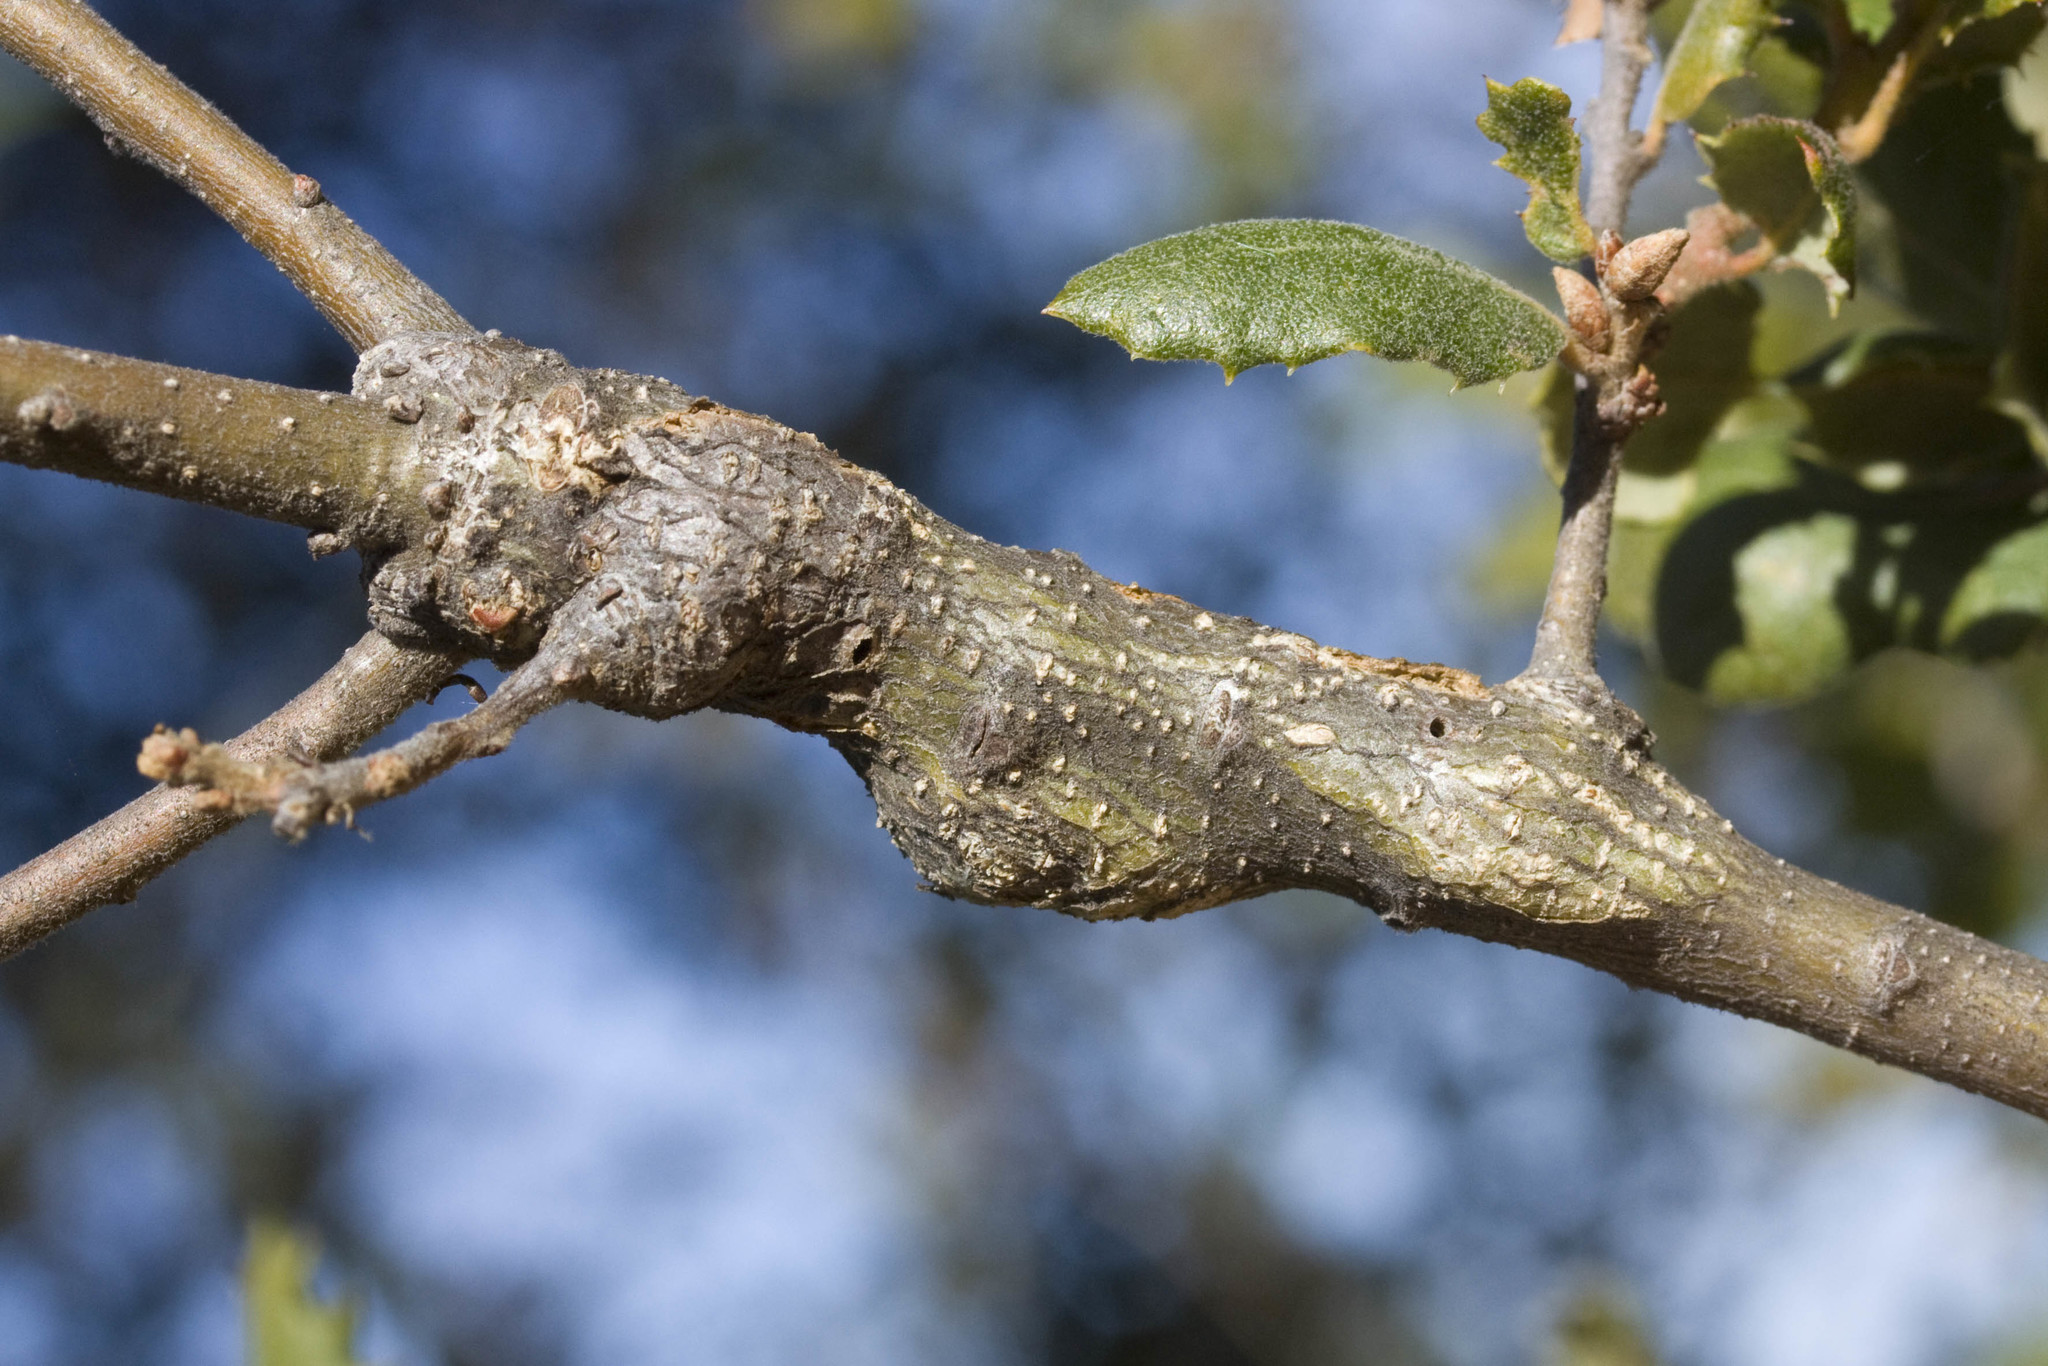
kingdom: Animalia
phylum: Arthropoda
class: Insecta
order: Hymenoptera
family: Cynipidae
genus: Andricus
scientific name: Andricus
